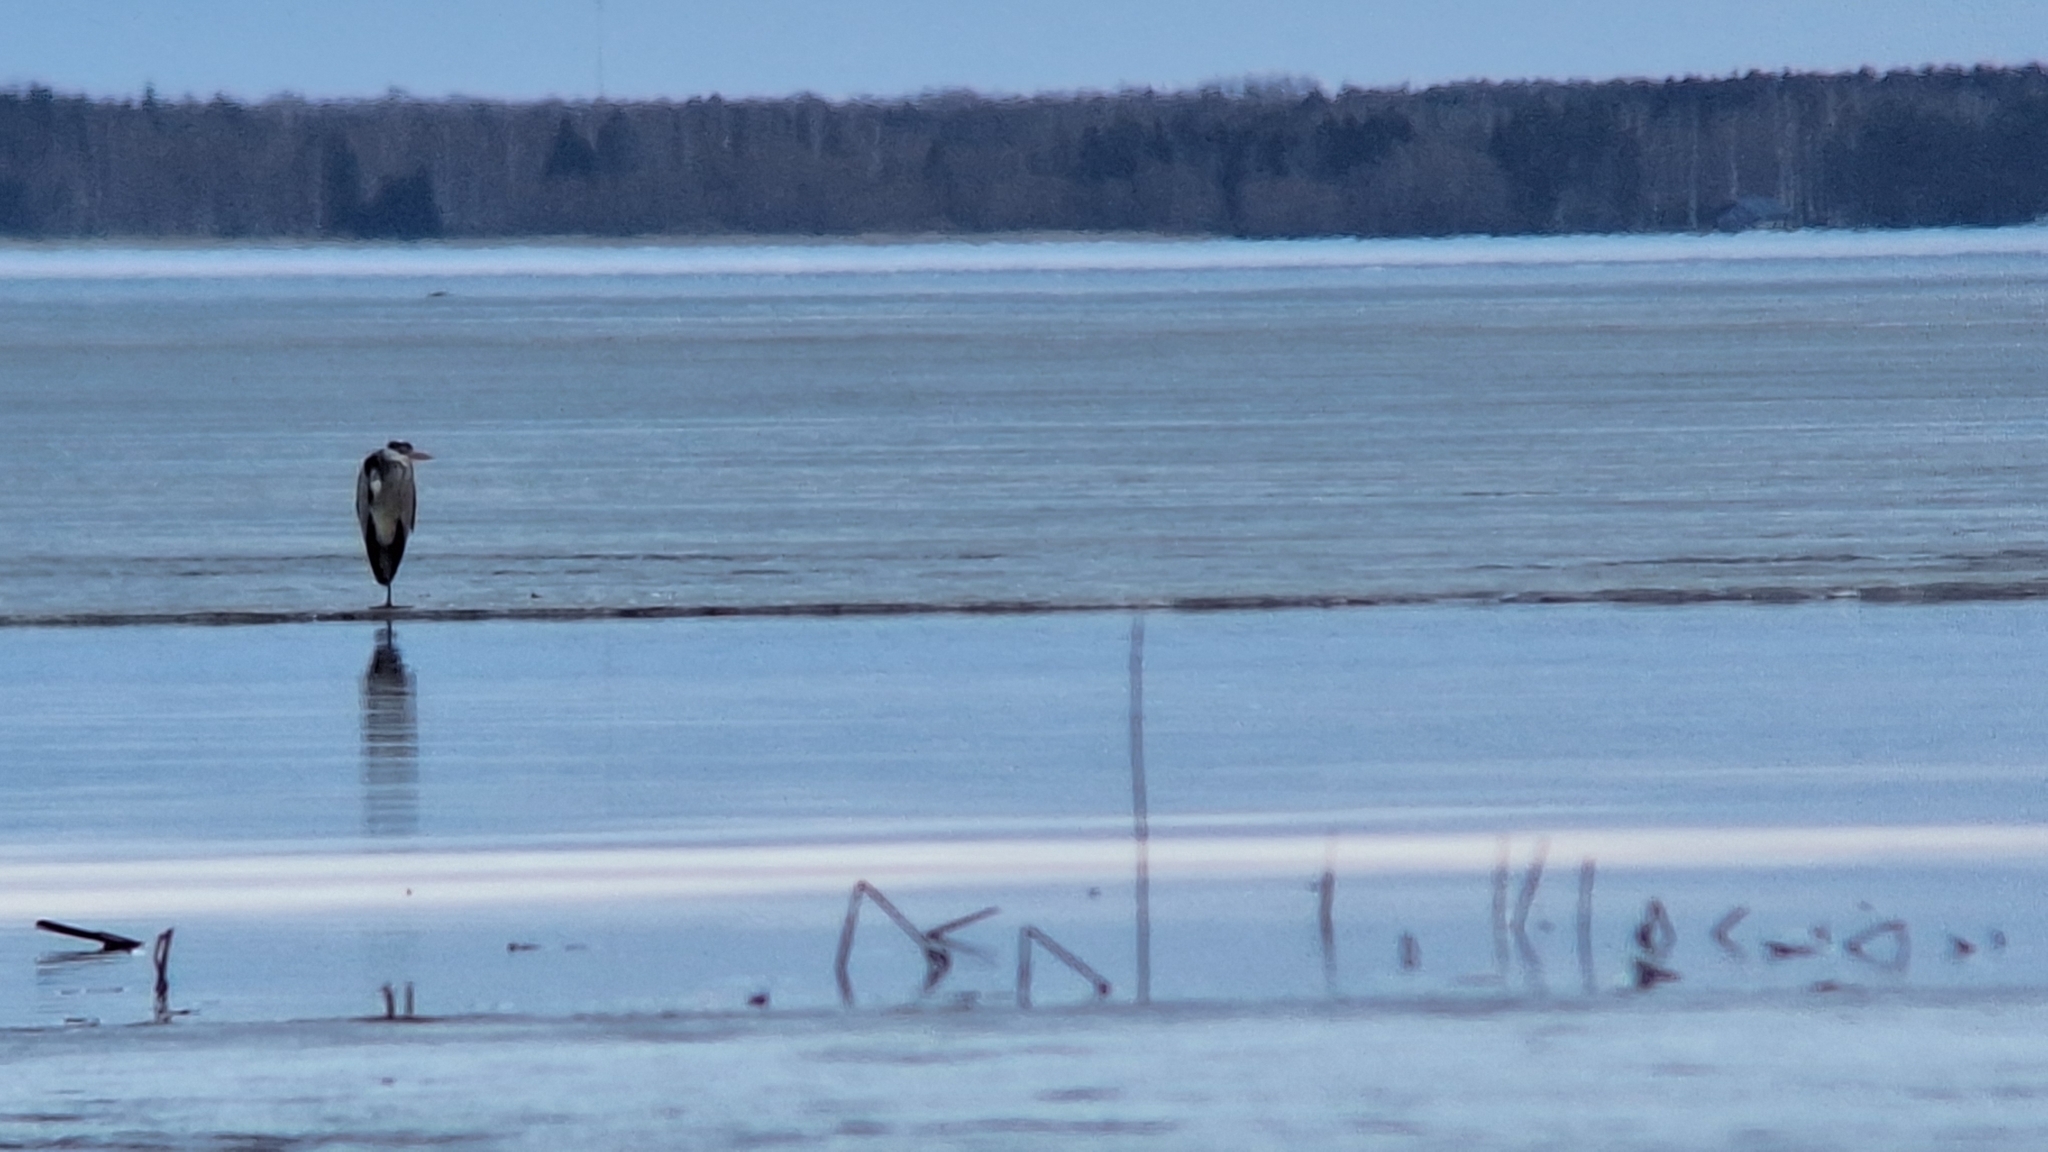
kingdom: Animalia
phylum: Chordata
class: Aves
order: Pelecaniformes
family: Ardeidae
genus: Ardea
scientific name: Ardea cinerea
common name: Grey heron
